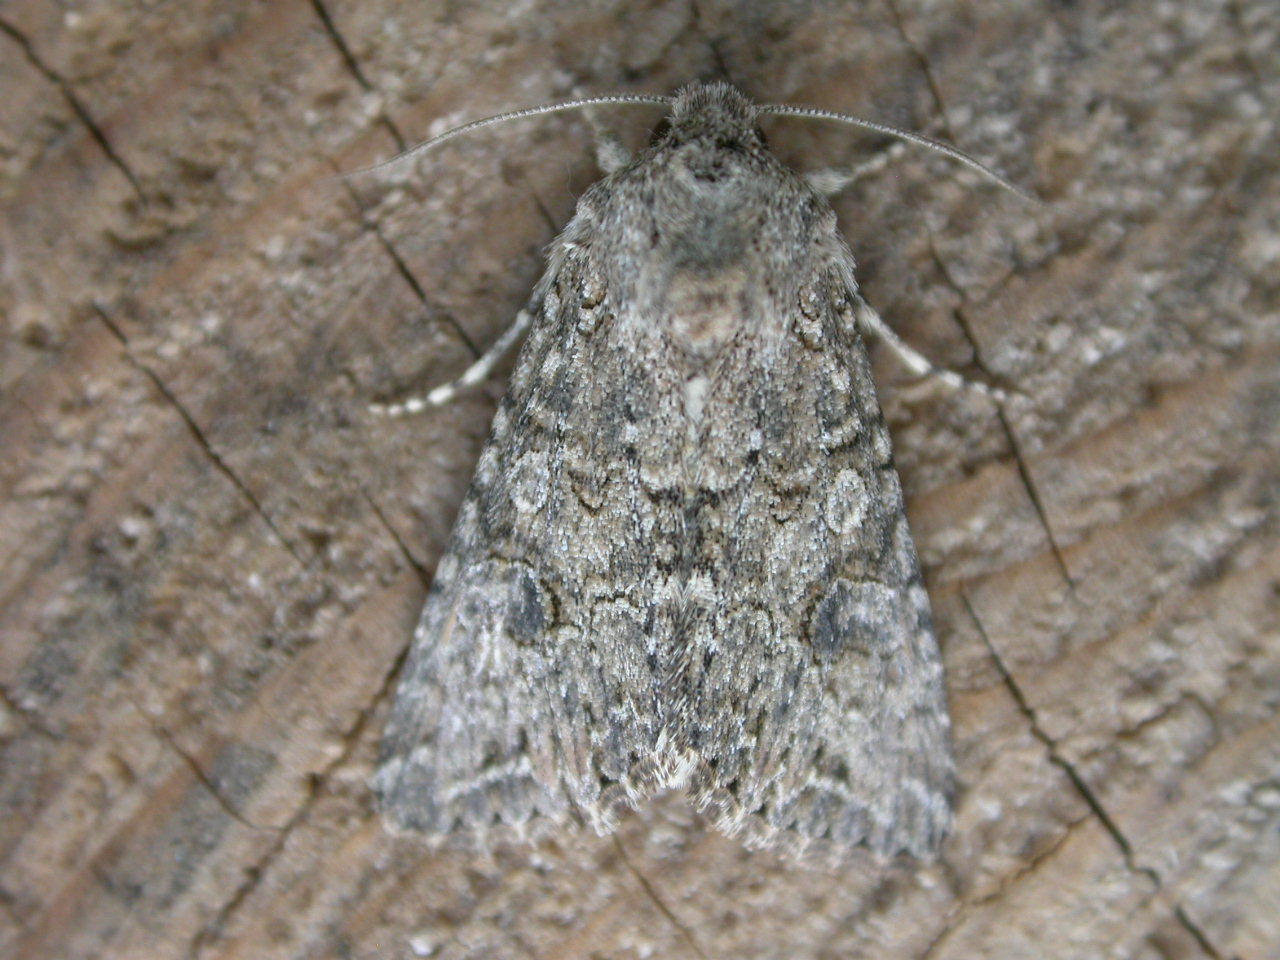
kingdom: Animalia
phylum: Arthropoda
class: Insecta
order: Lepidoptera
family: Noctuidae
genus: Anarta
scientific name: Anarta trifolii
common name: Clover cutworm moth
